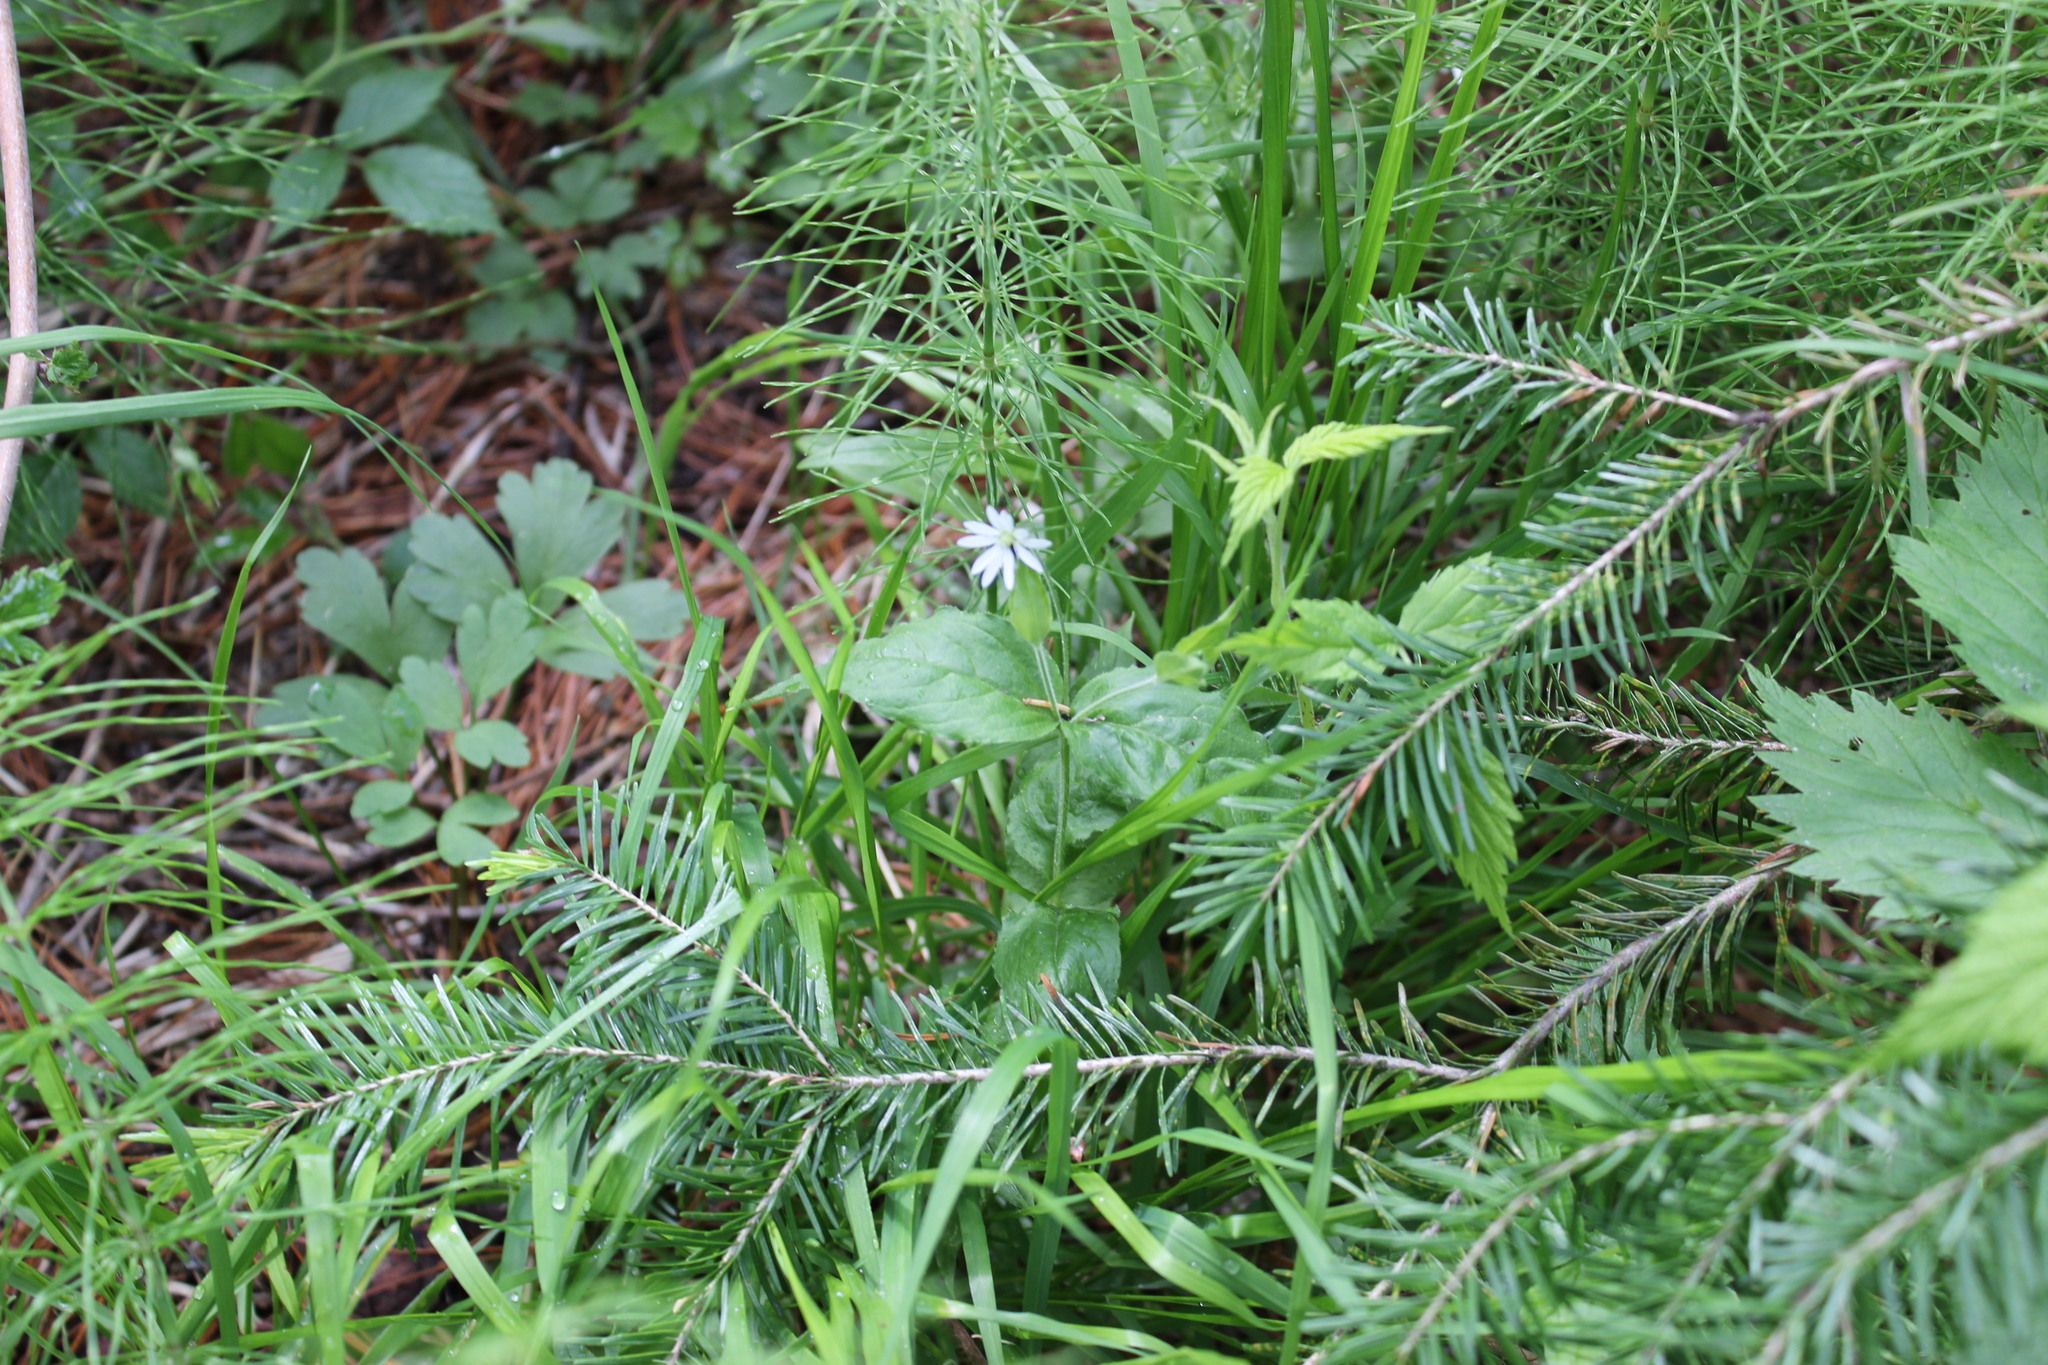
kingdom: Plantae
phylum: Tracheophyta
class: Magnoliopsida
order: Caryophyllales
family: Caryophyllaceae
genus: Stellaria
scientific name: Stellaria bungeana
